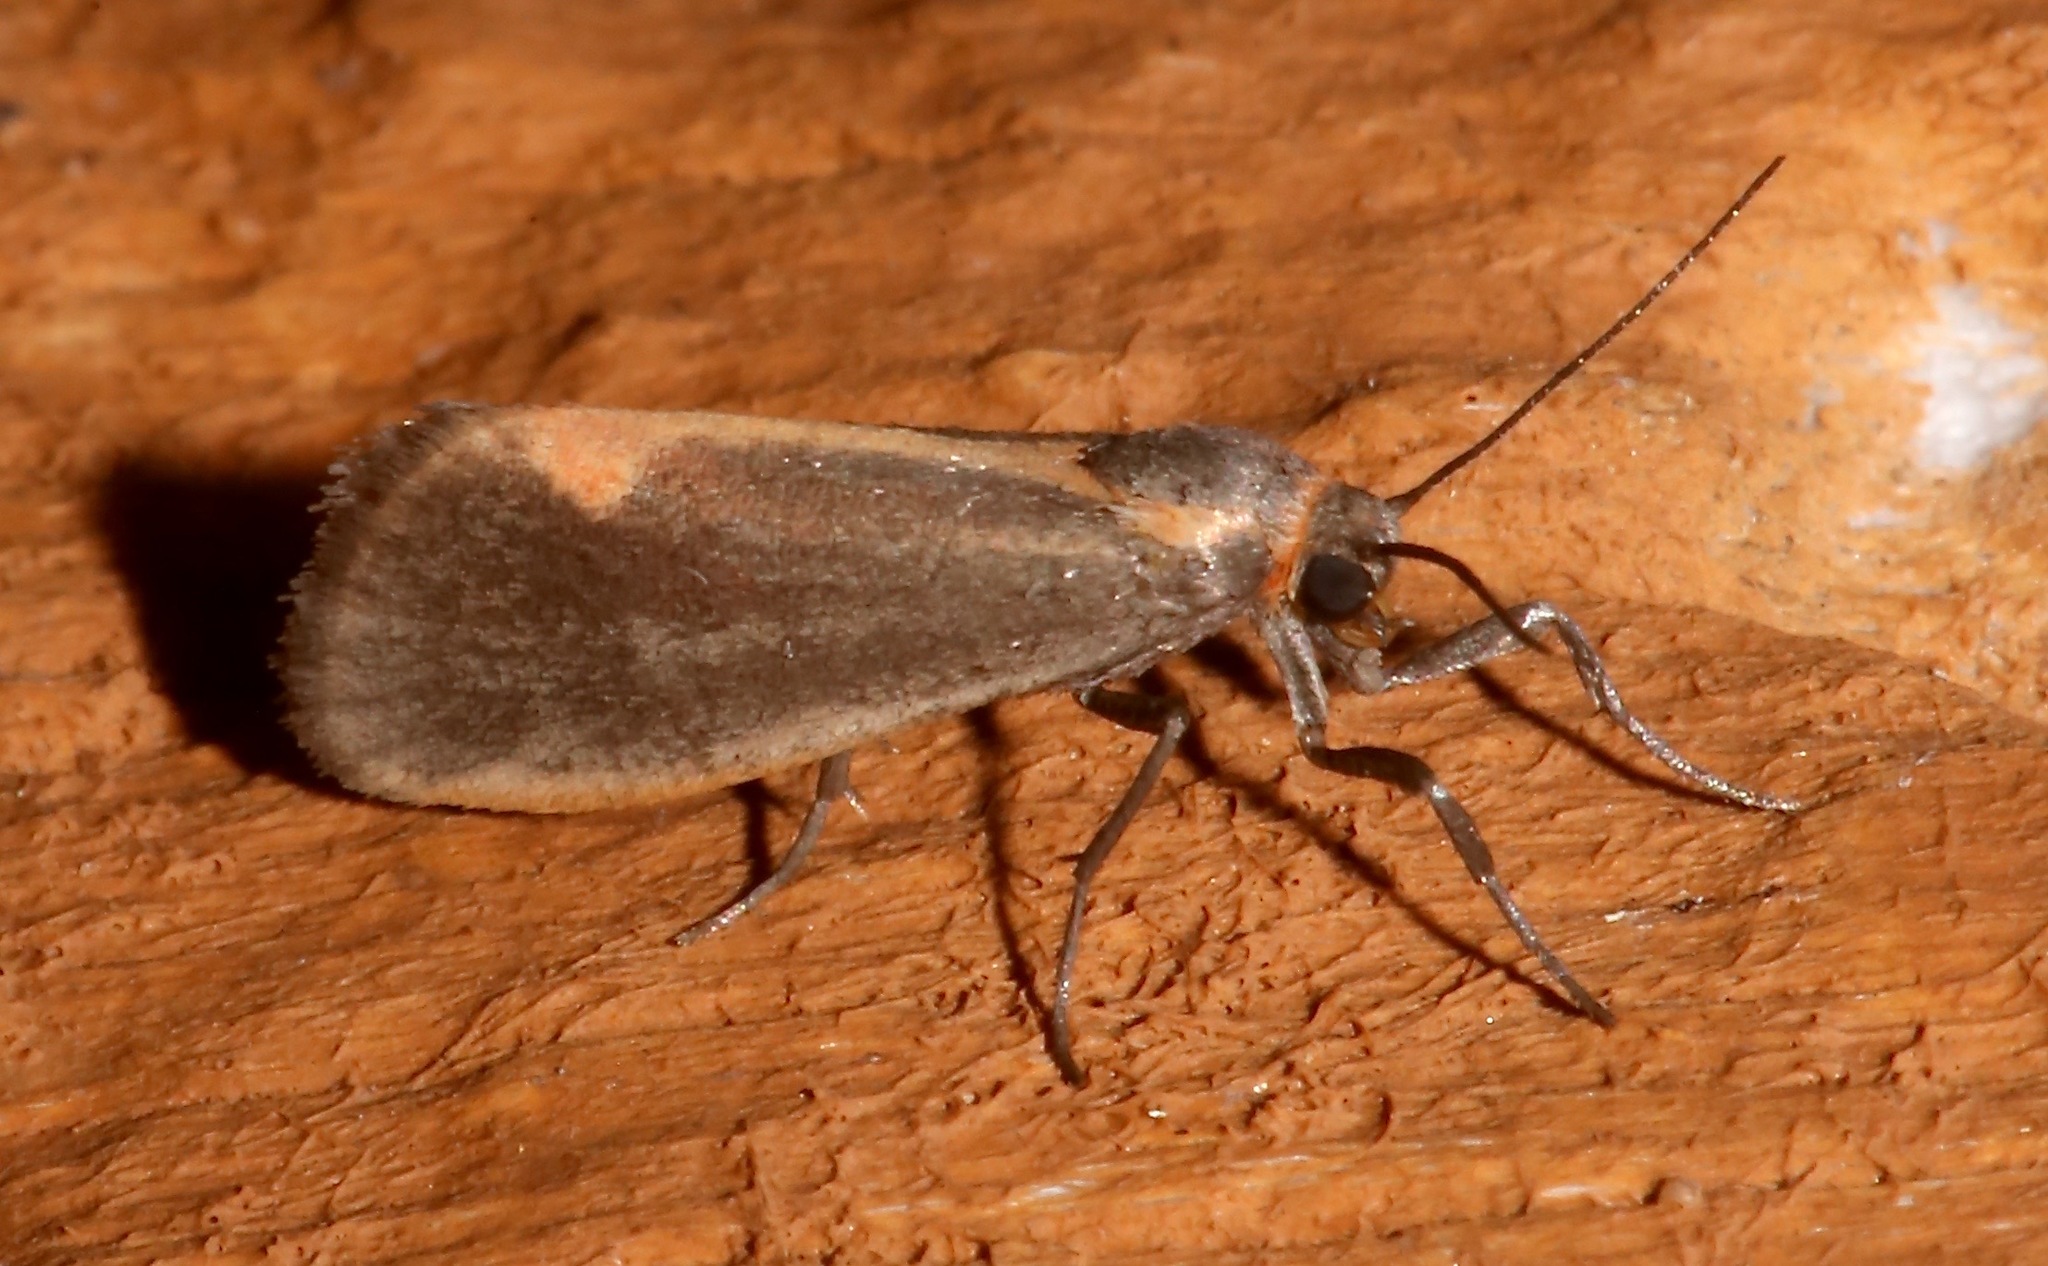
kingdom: Animalia
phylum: Arthropoda
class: Insecta
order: Lepidoptera
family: Erebidae
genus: Cisthene
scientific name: Cisthene plumbea
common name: Lead colored lichen moth
